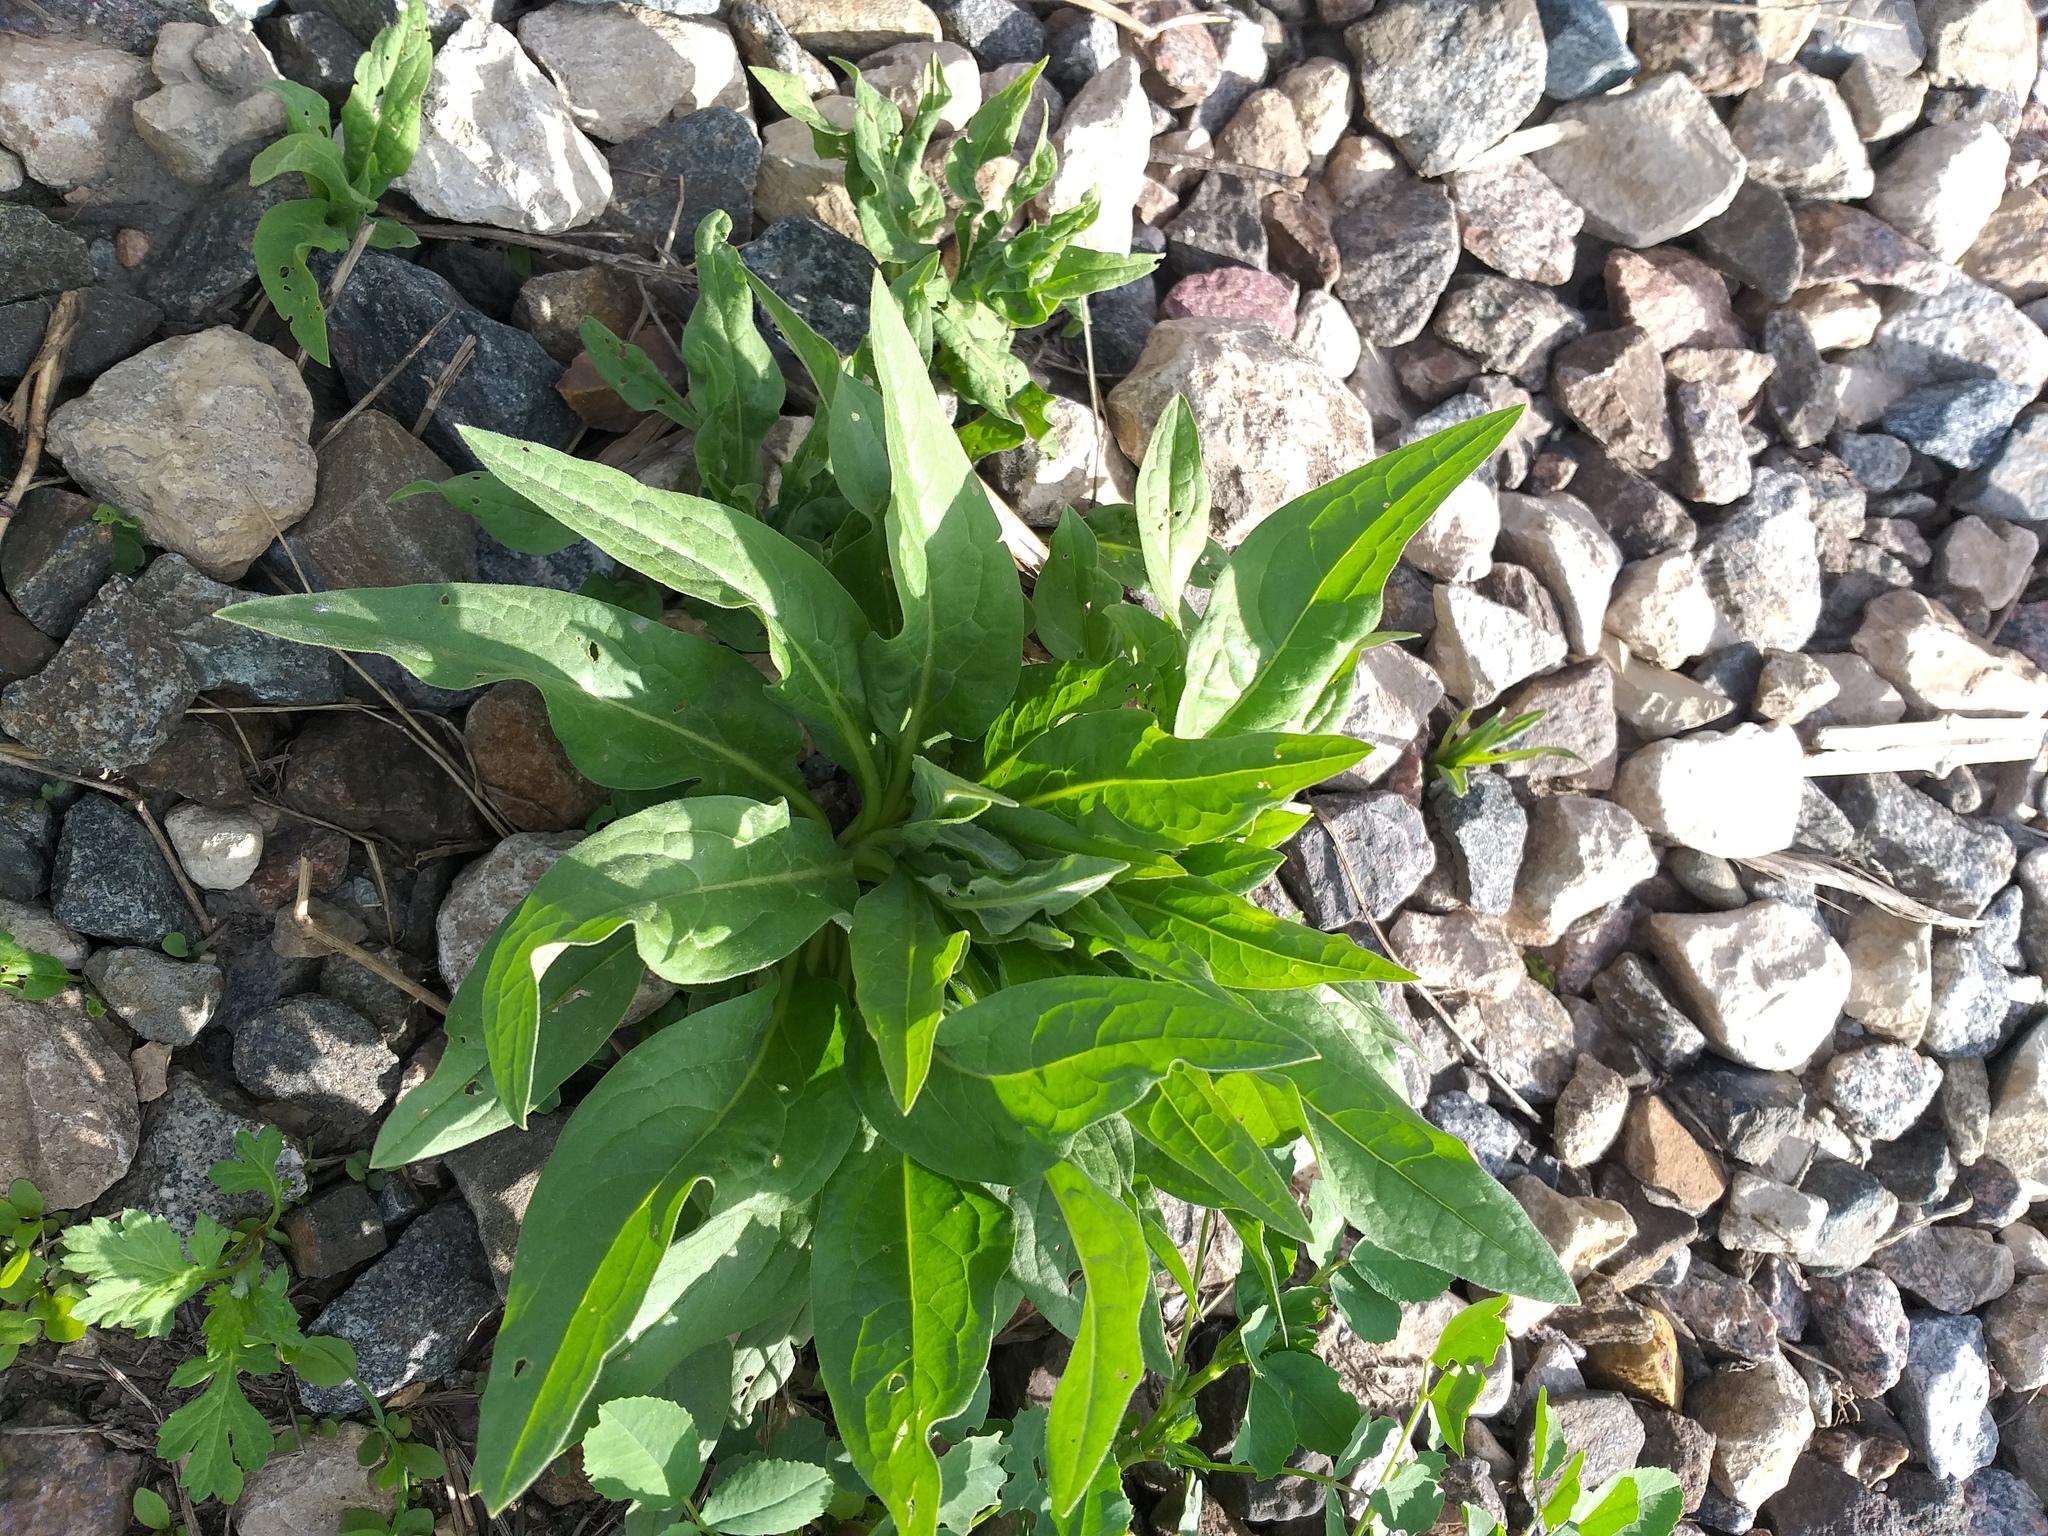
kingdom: Plantae
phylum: Tracheophyta
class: Magnoliopsida
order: Boraginales
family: Boraginaceae
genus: Cynoglossum
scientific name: Cynoglossum officinale
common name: Hound's-tongue
